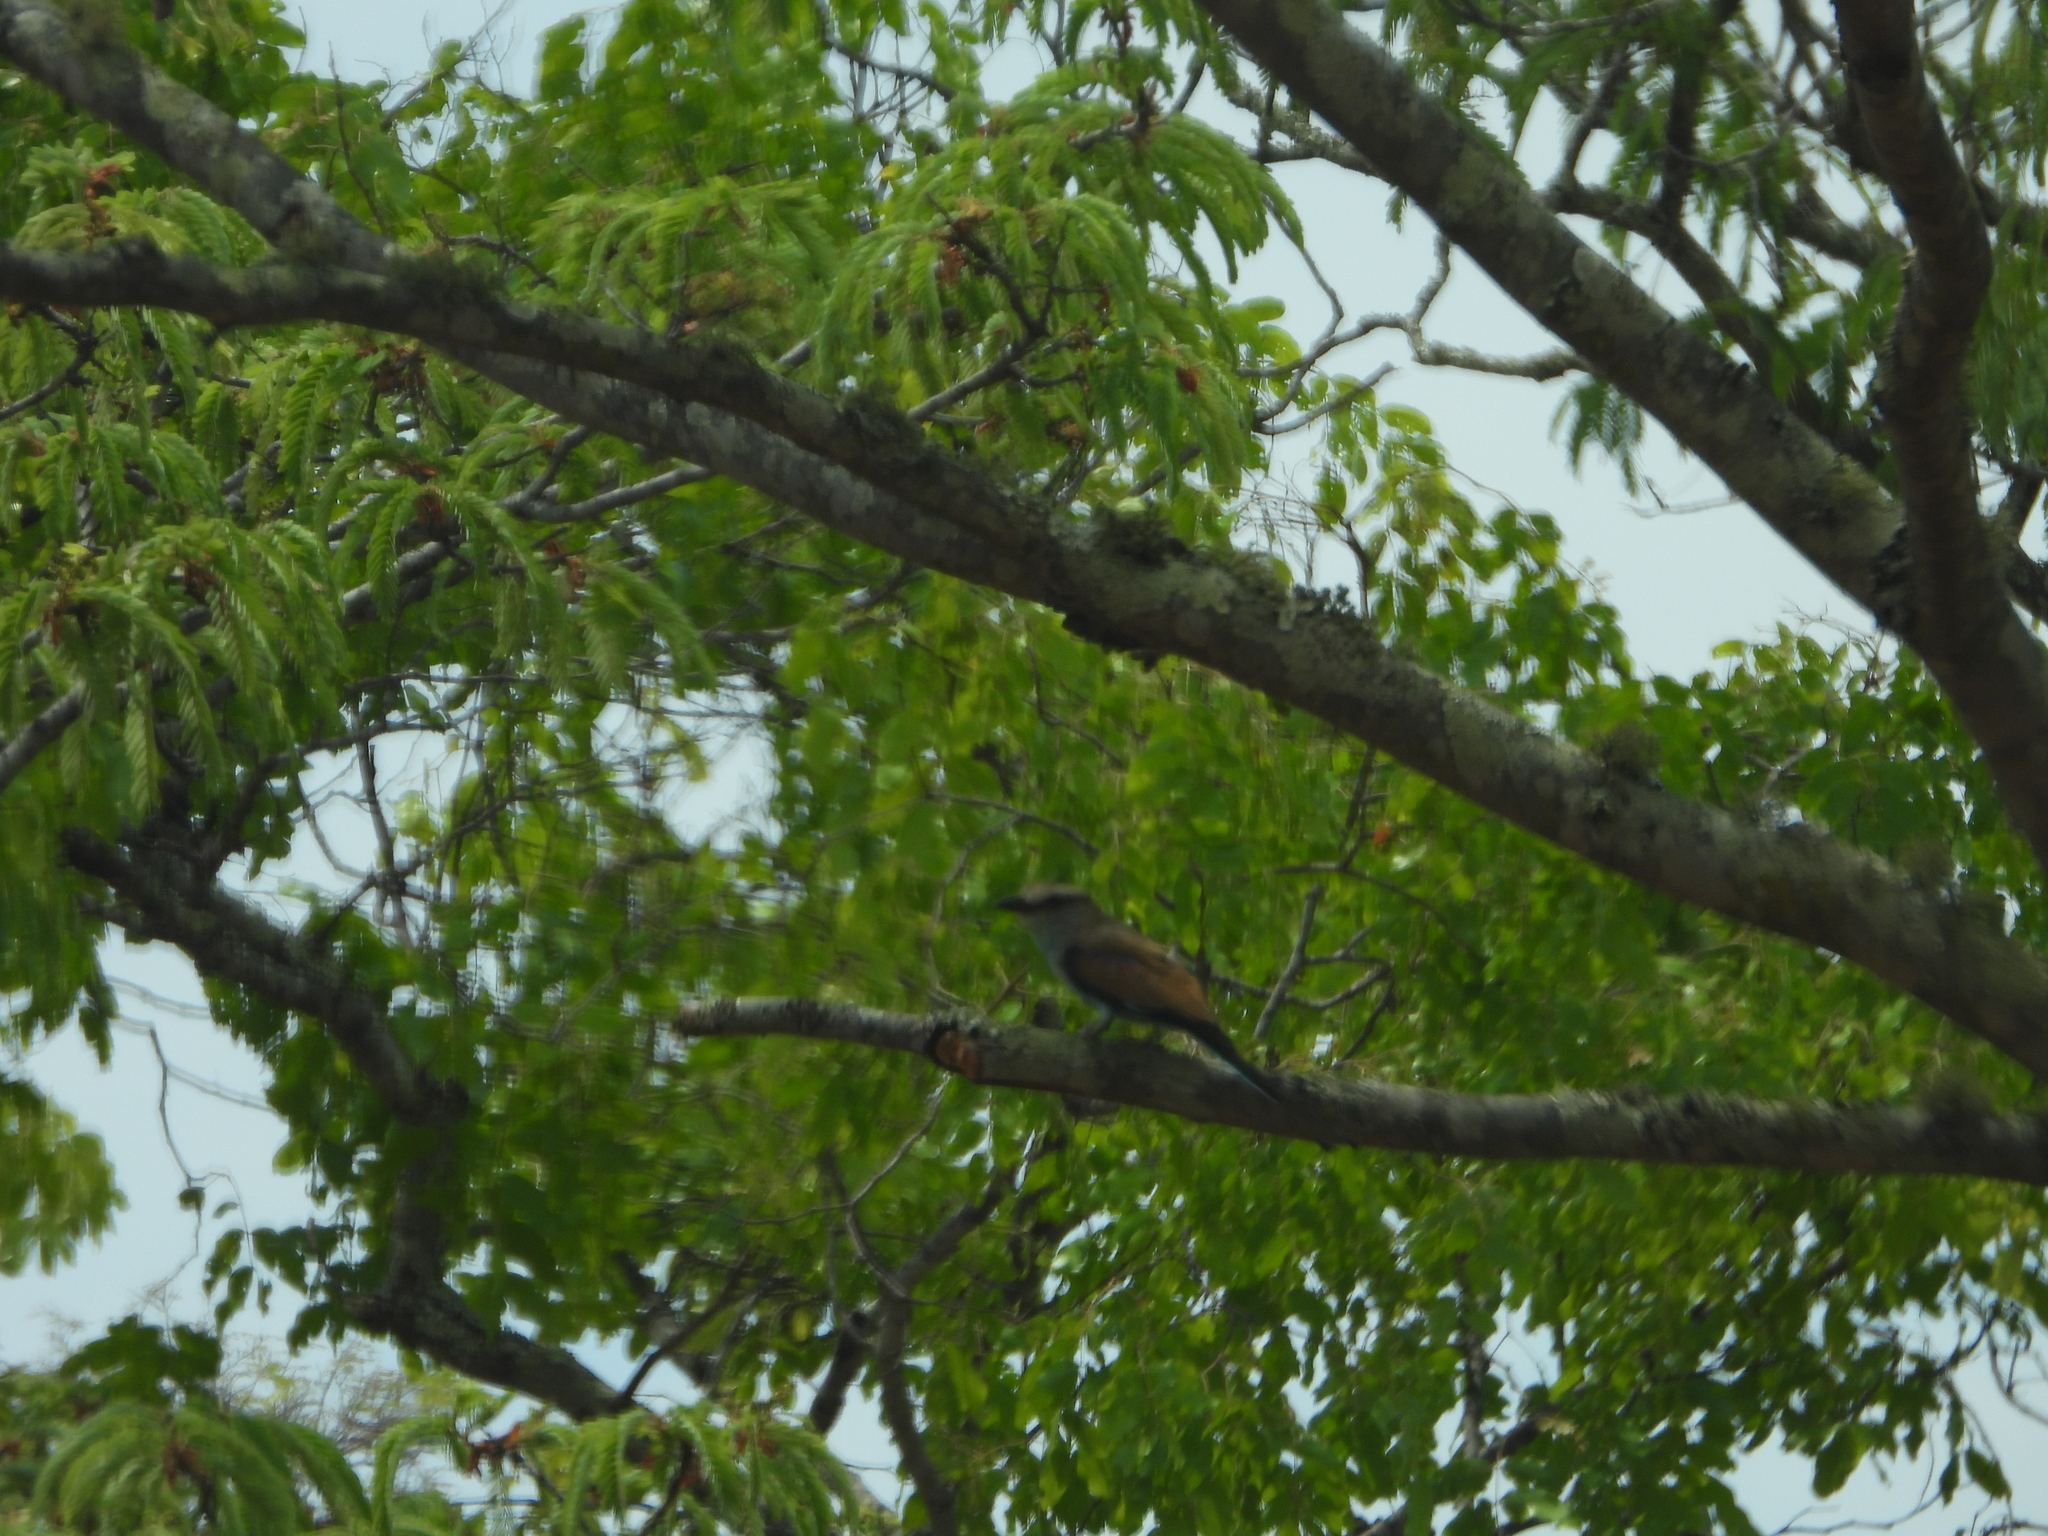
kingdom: Animalia
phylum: Chordata
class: Aves
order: Coraciiformes
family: Coraciidae
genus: Coracias
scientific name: Coracias spatulatus
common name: Racket-tailed roller
